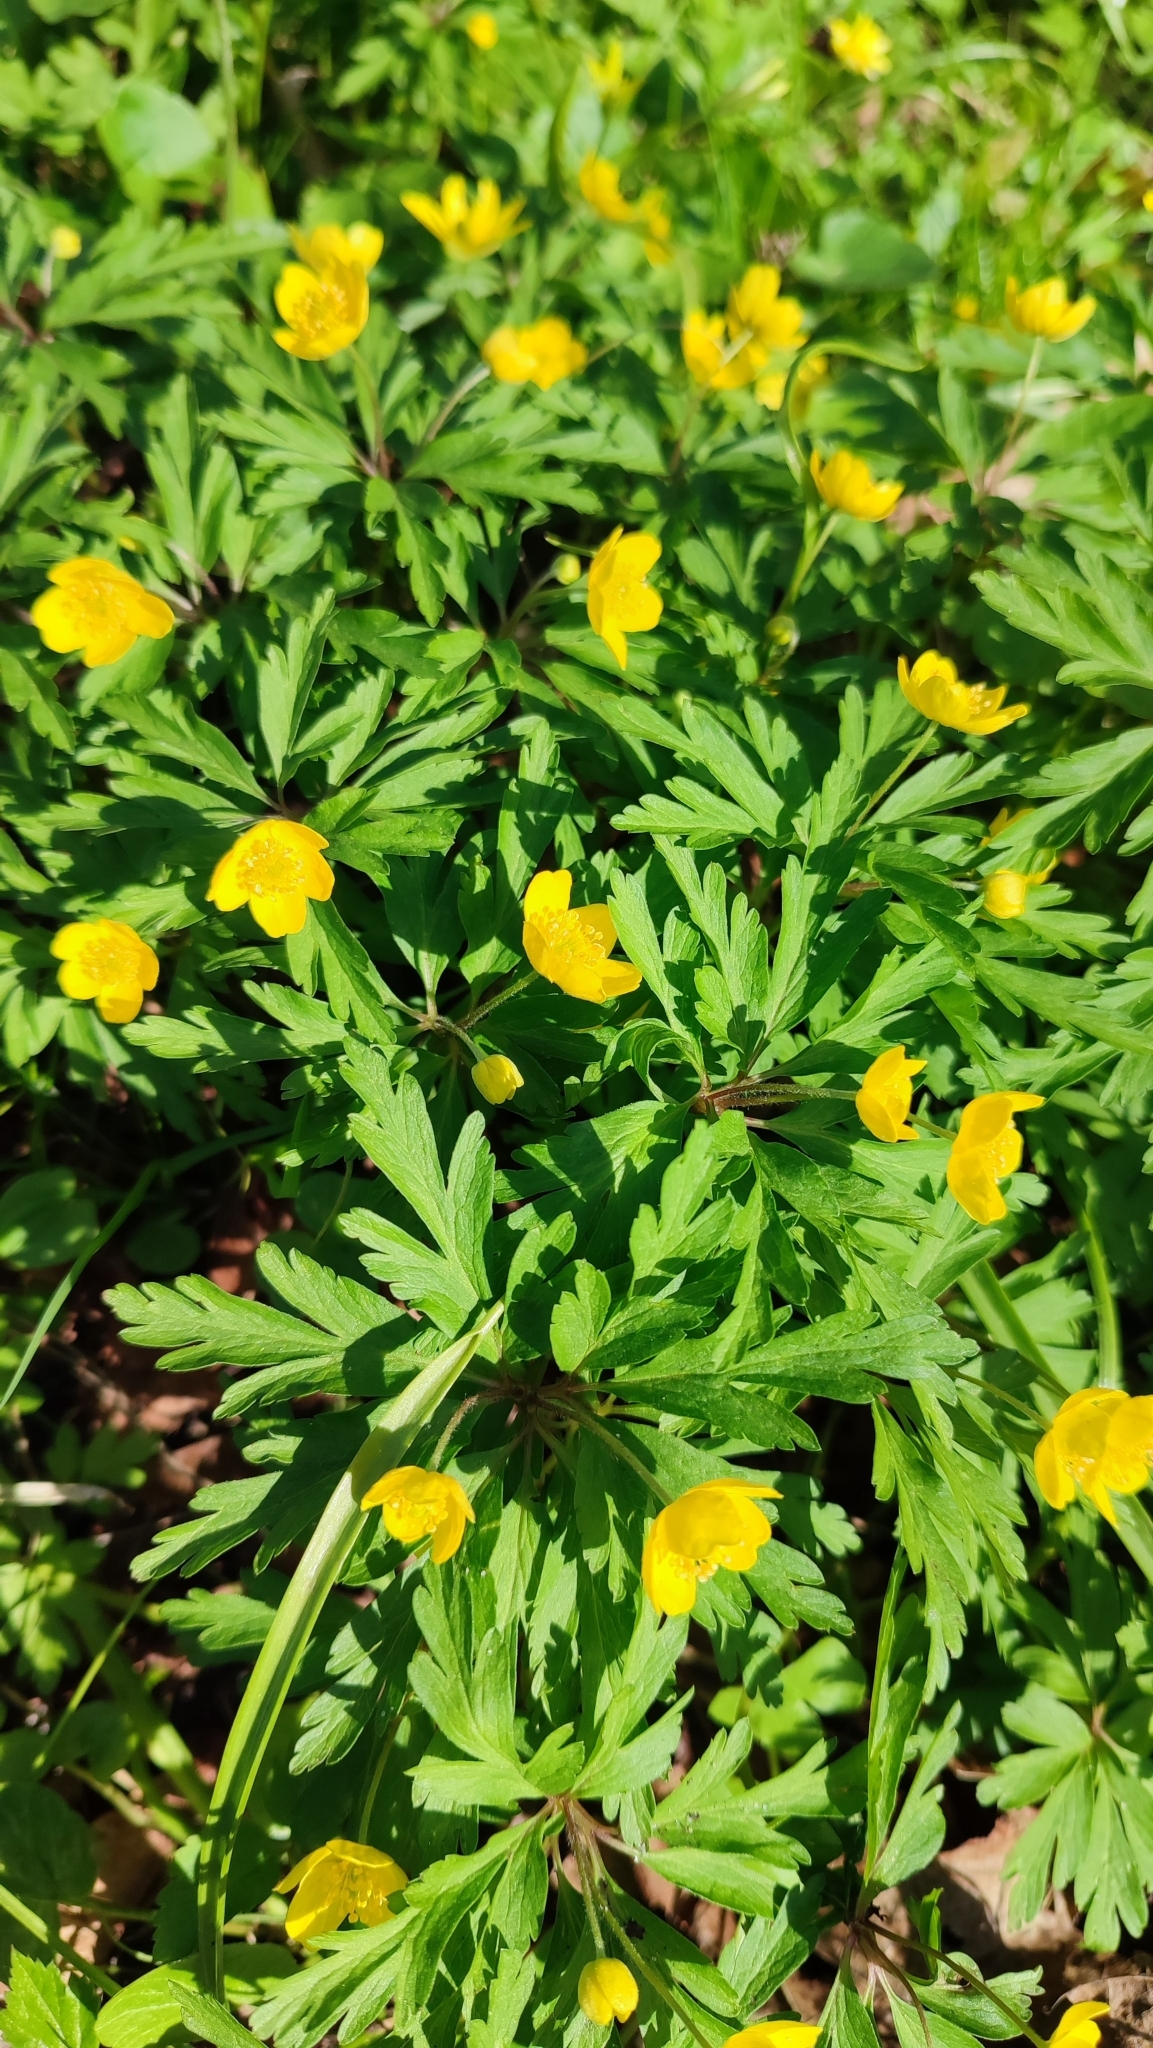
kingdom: Plantae
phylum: Tracheophyta
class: Magnoliopsida
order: Ranunculales
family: Ranunculaceae
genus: Anemone
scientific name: Anemone ranunculoides
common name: Yellow anemone
